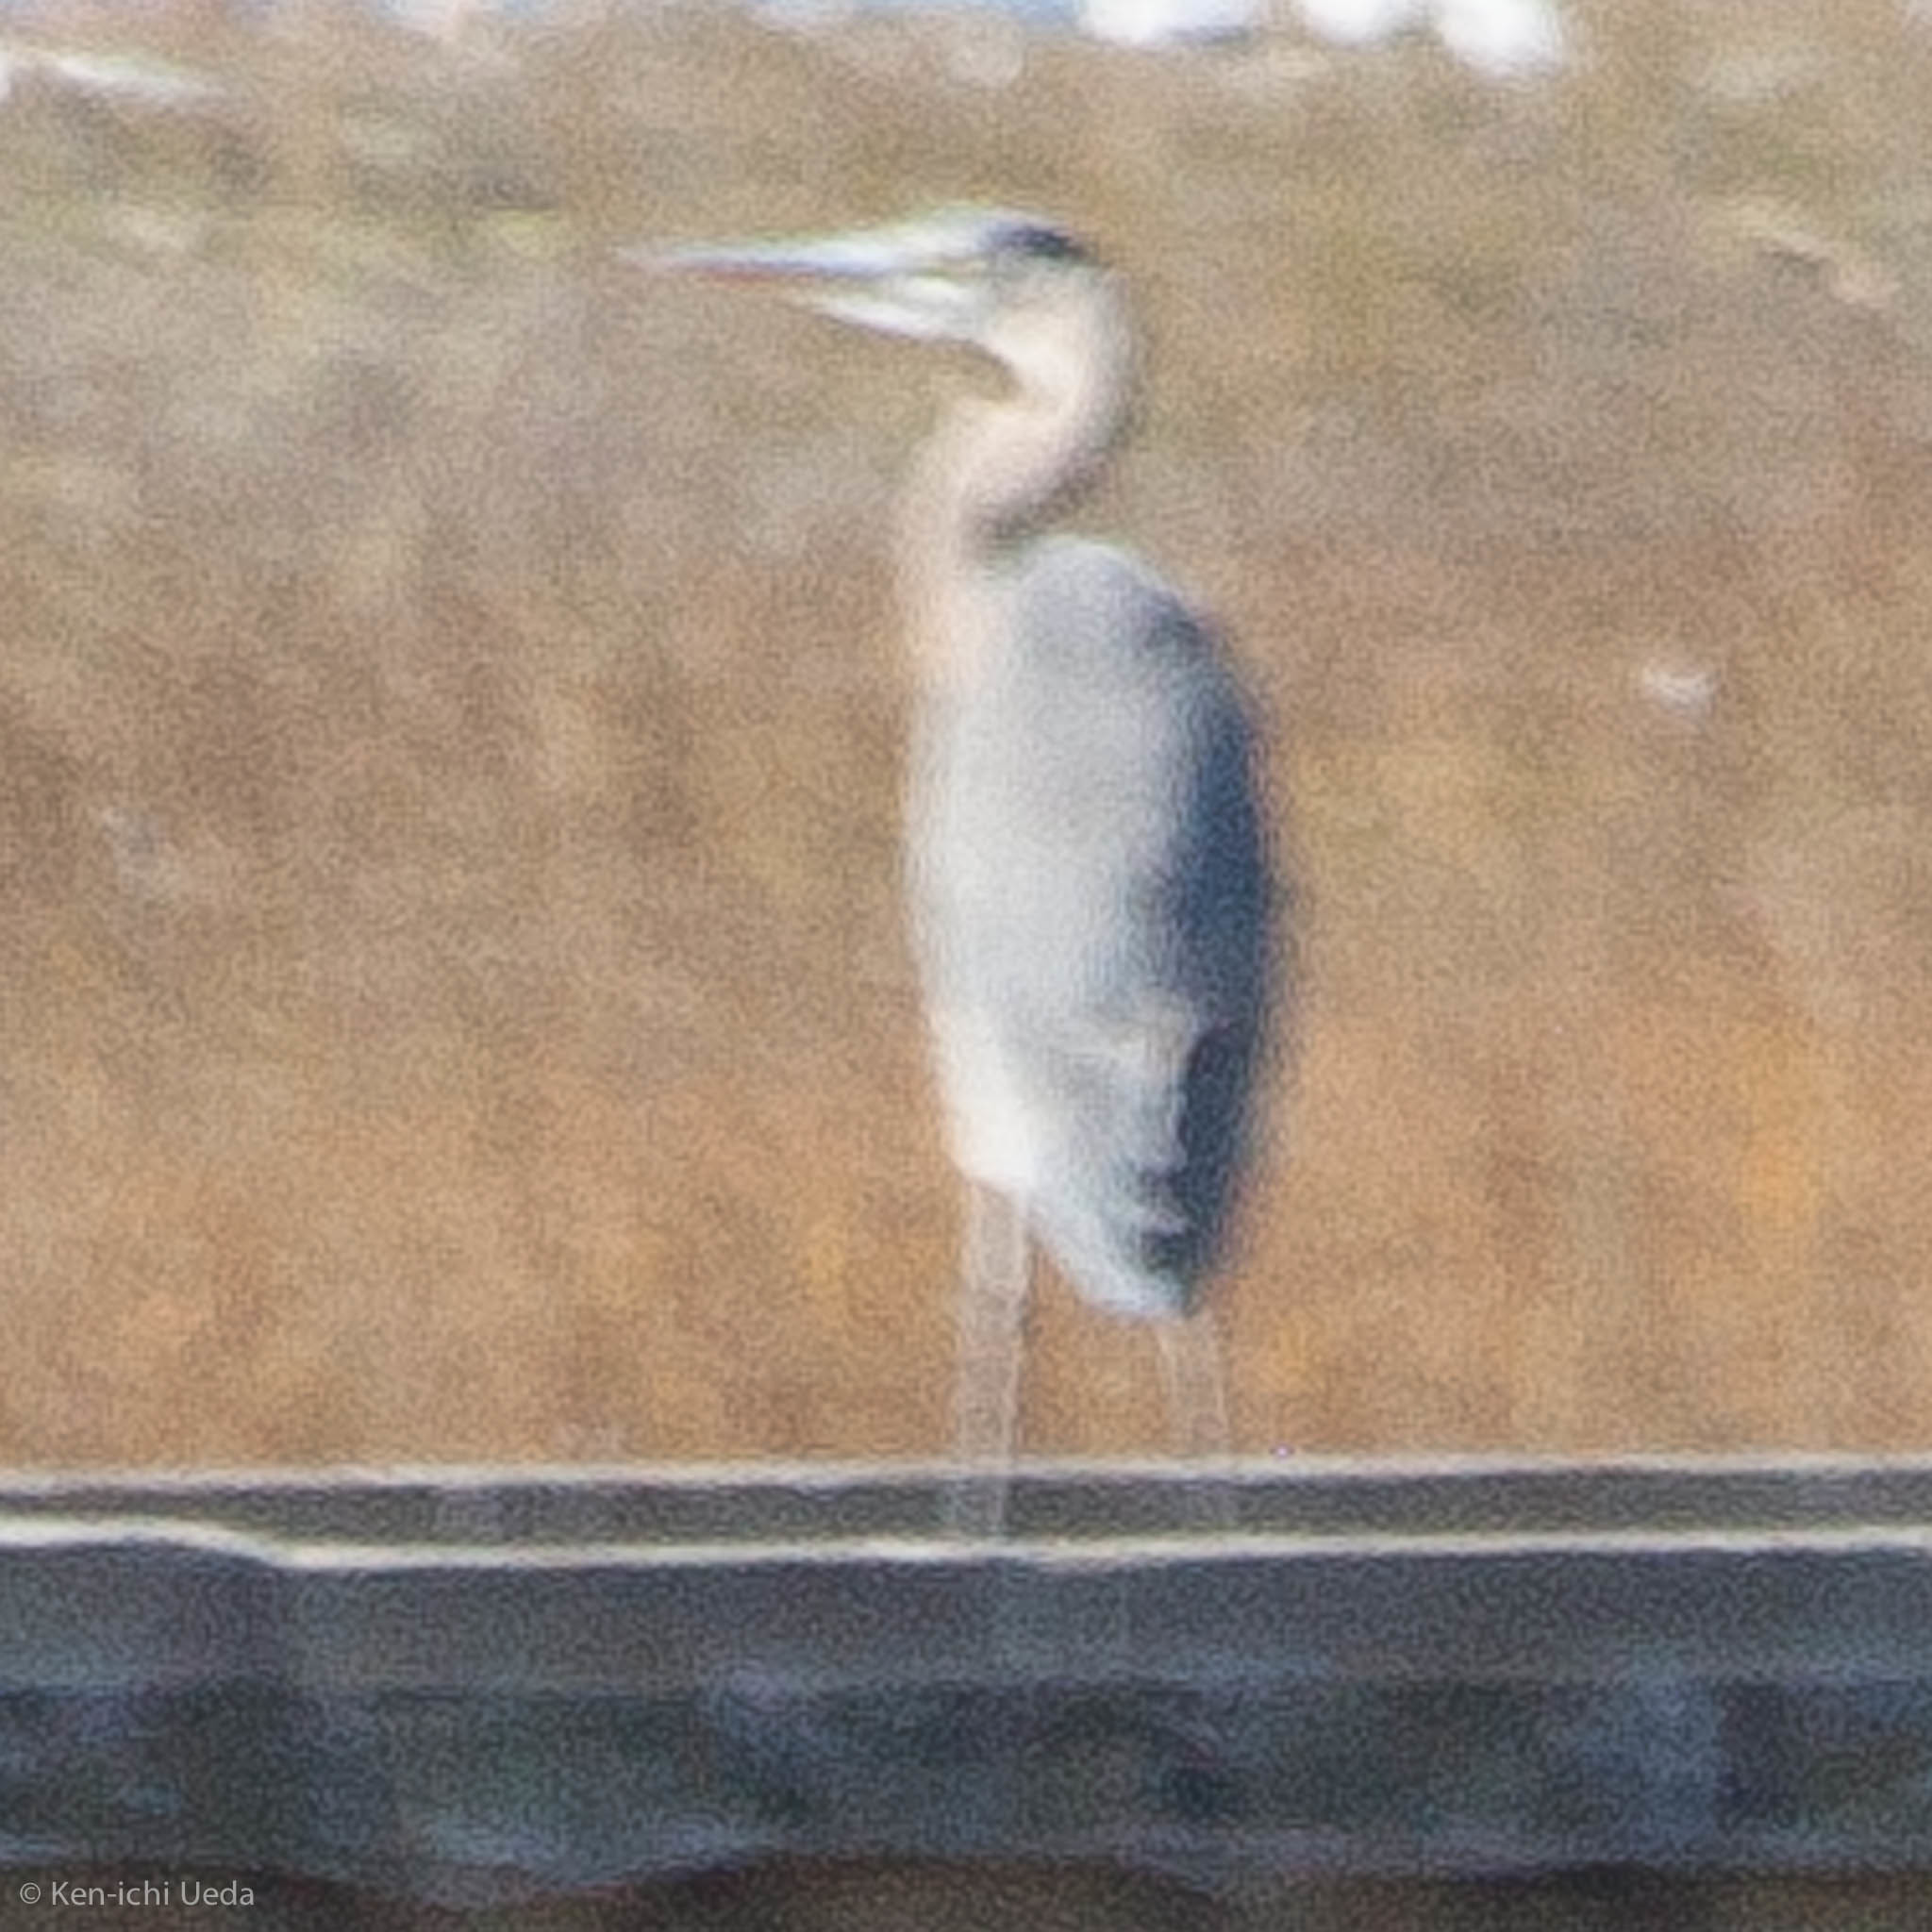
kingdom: Animalia
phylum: Chordata
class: Aves
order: Pelecaniformes
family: Ardeidae
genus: Ardea
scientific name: Ardea herodias
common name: Great blue heron
